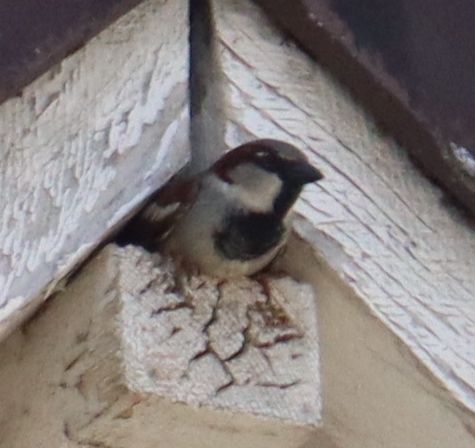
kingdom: Animalia
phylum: Chordata
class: Aves
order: Passeriformes
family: Passeridae
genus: Passer
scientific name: Passer domesticus
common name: House sparrow
